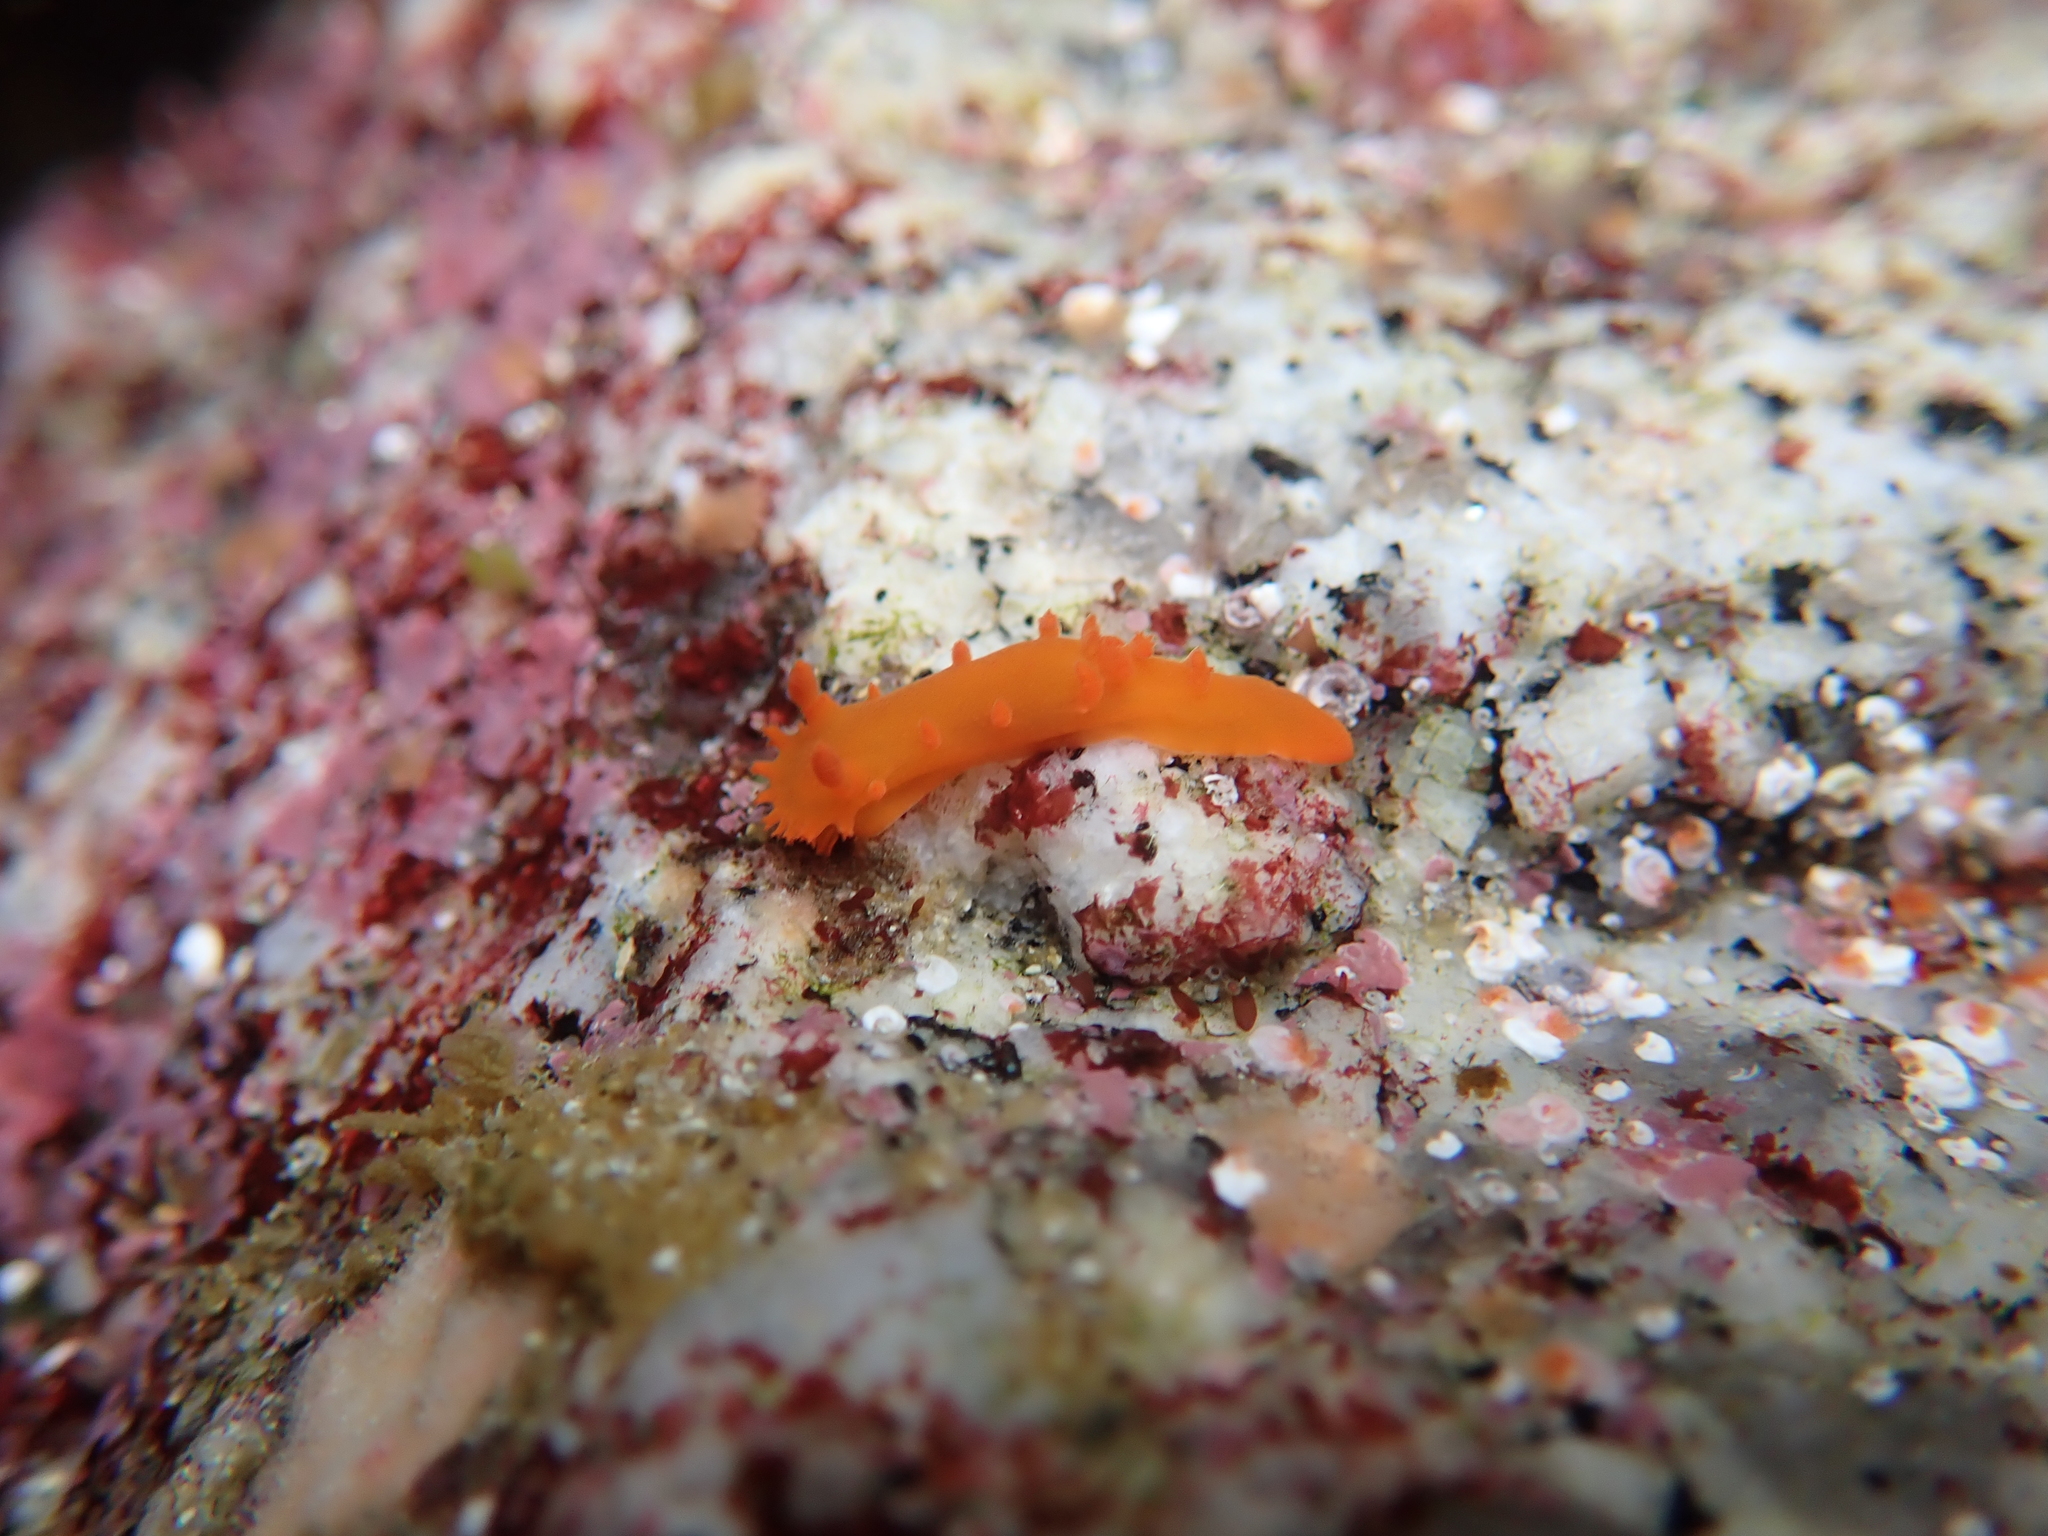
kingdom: Animalia
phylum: Mollusca
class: Gastropoda
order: Nudibranchia
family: Polyceridae
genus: Triopha
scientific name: Triopha maculata
